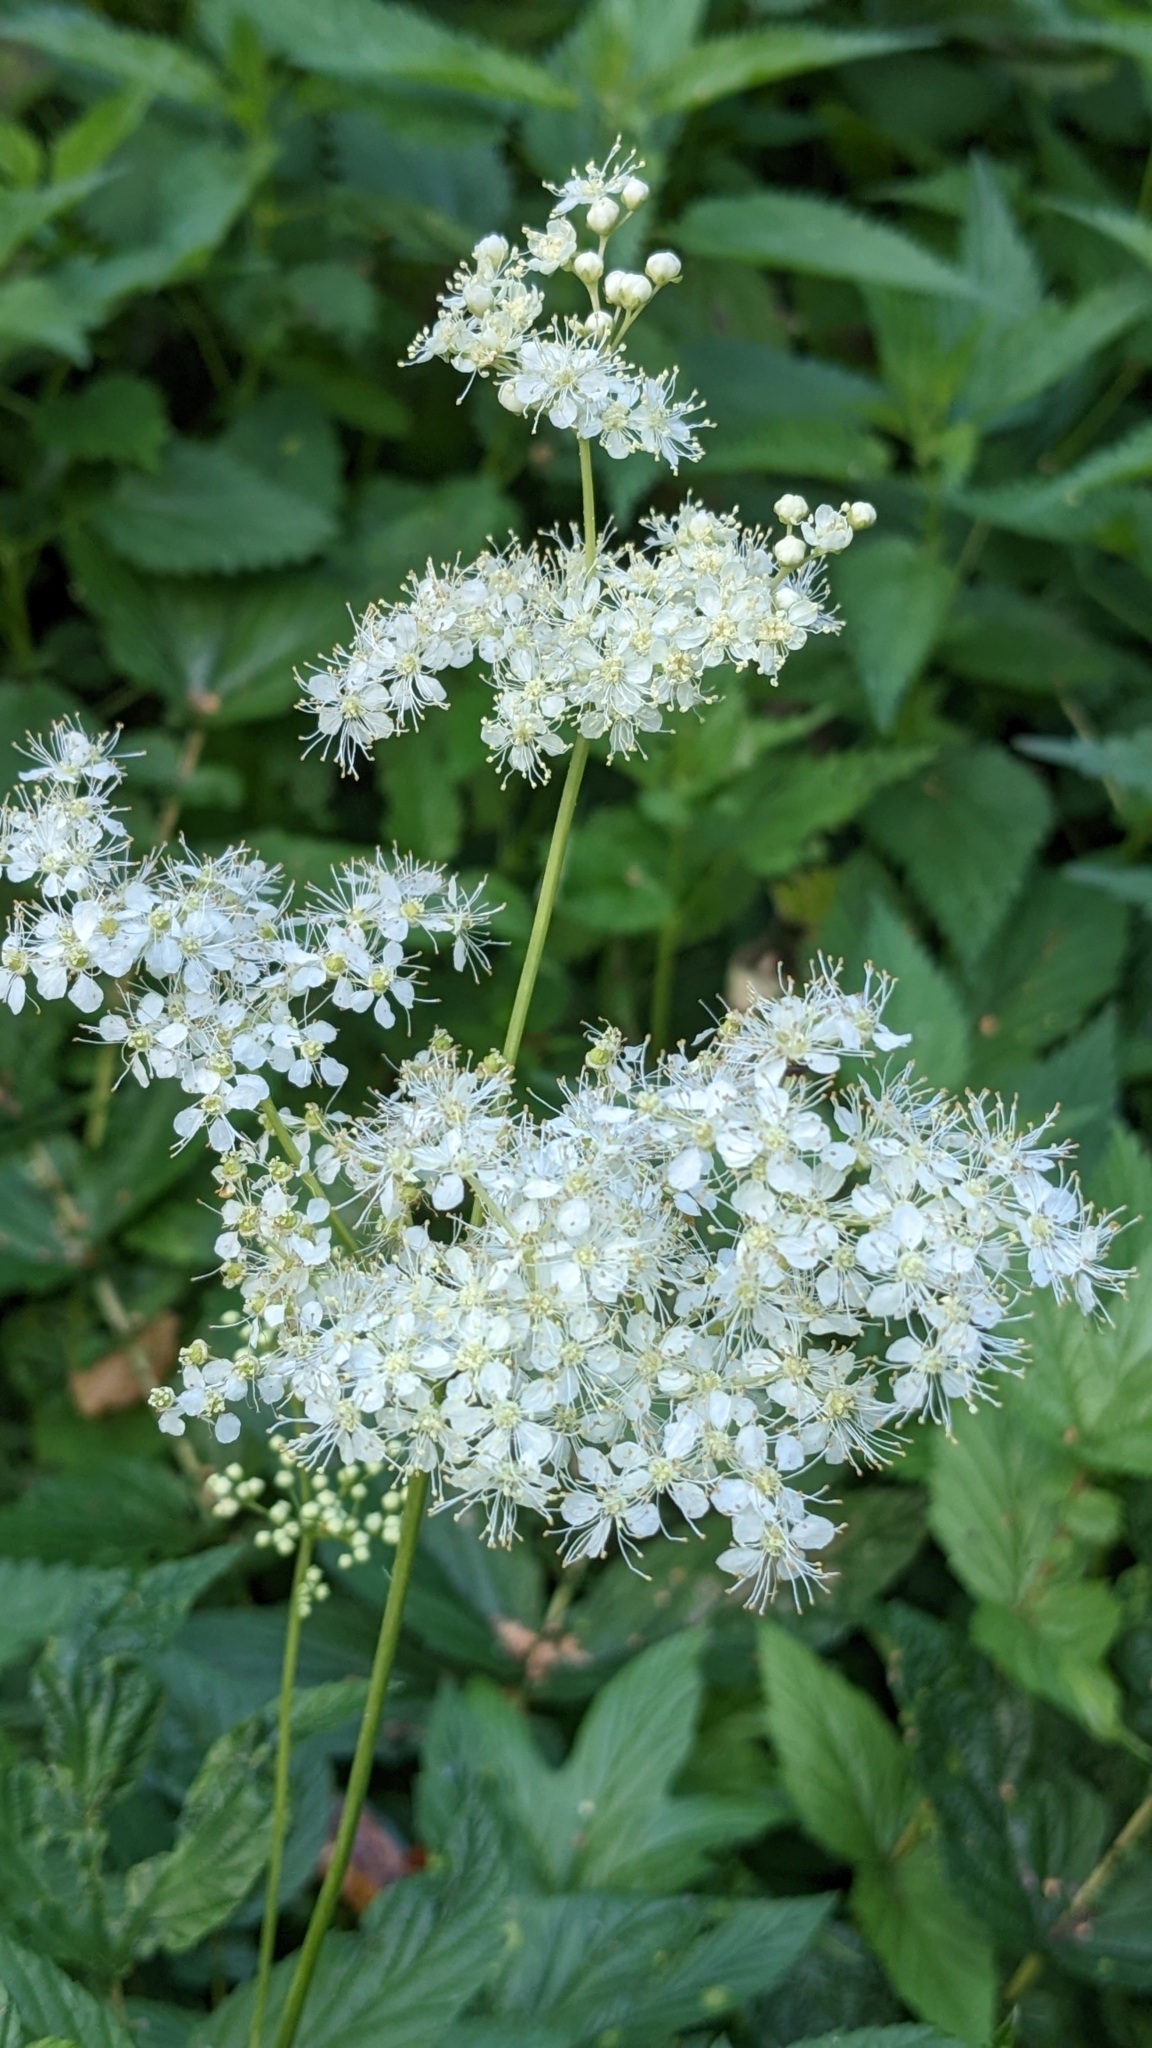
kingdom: Plantae
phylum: Tracheophyta
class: Magnoliopsida
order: Rosales
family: Rosaceae
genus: Filipendula
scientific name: Filipendula ulmaria
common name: Meadowsweet
